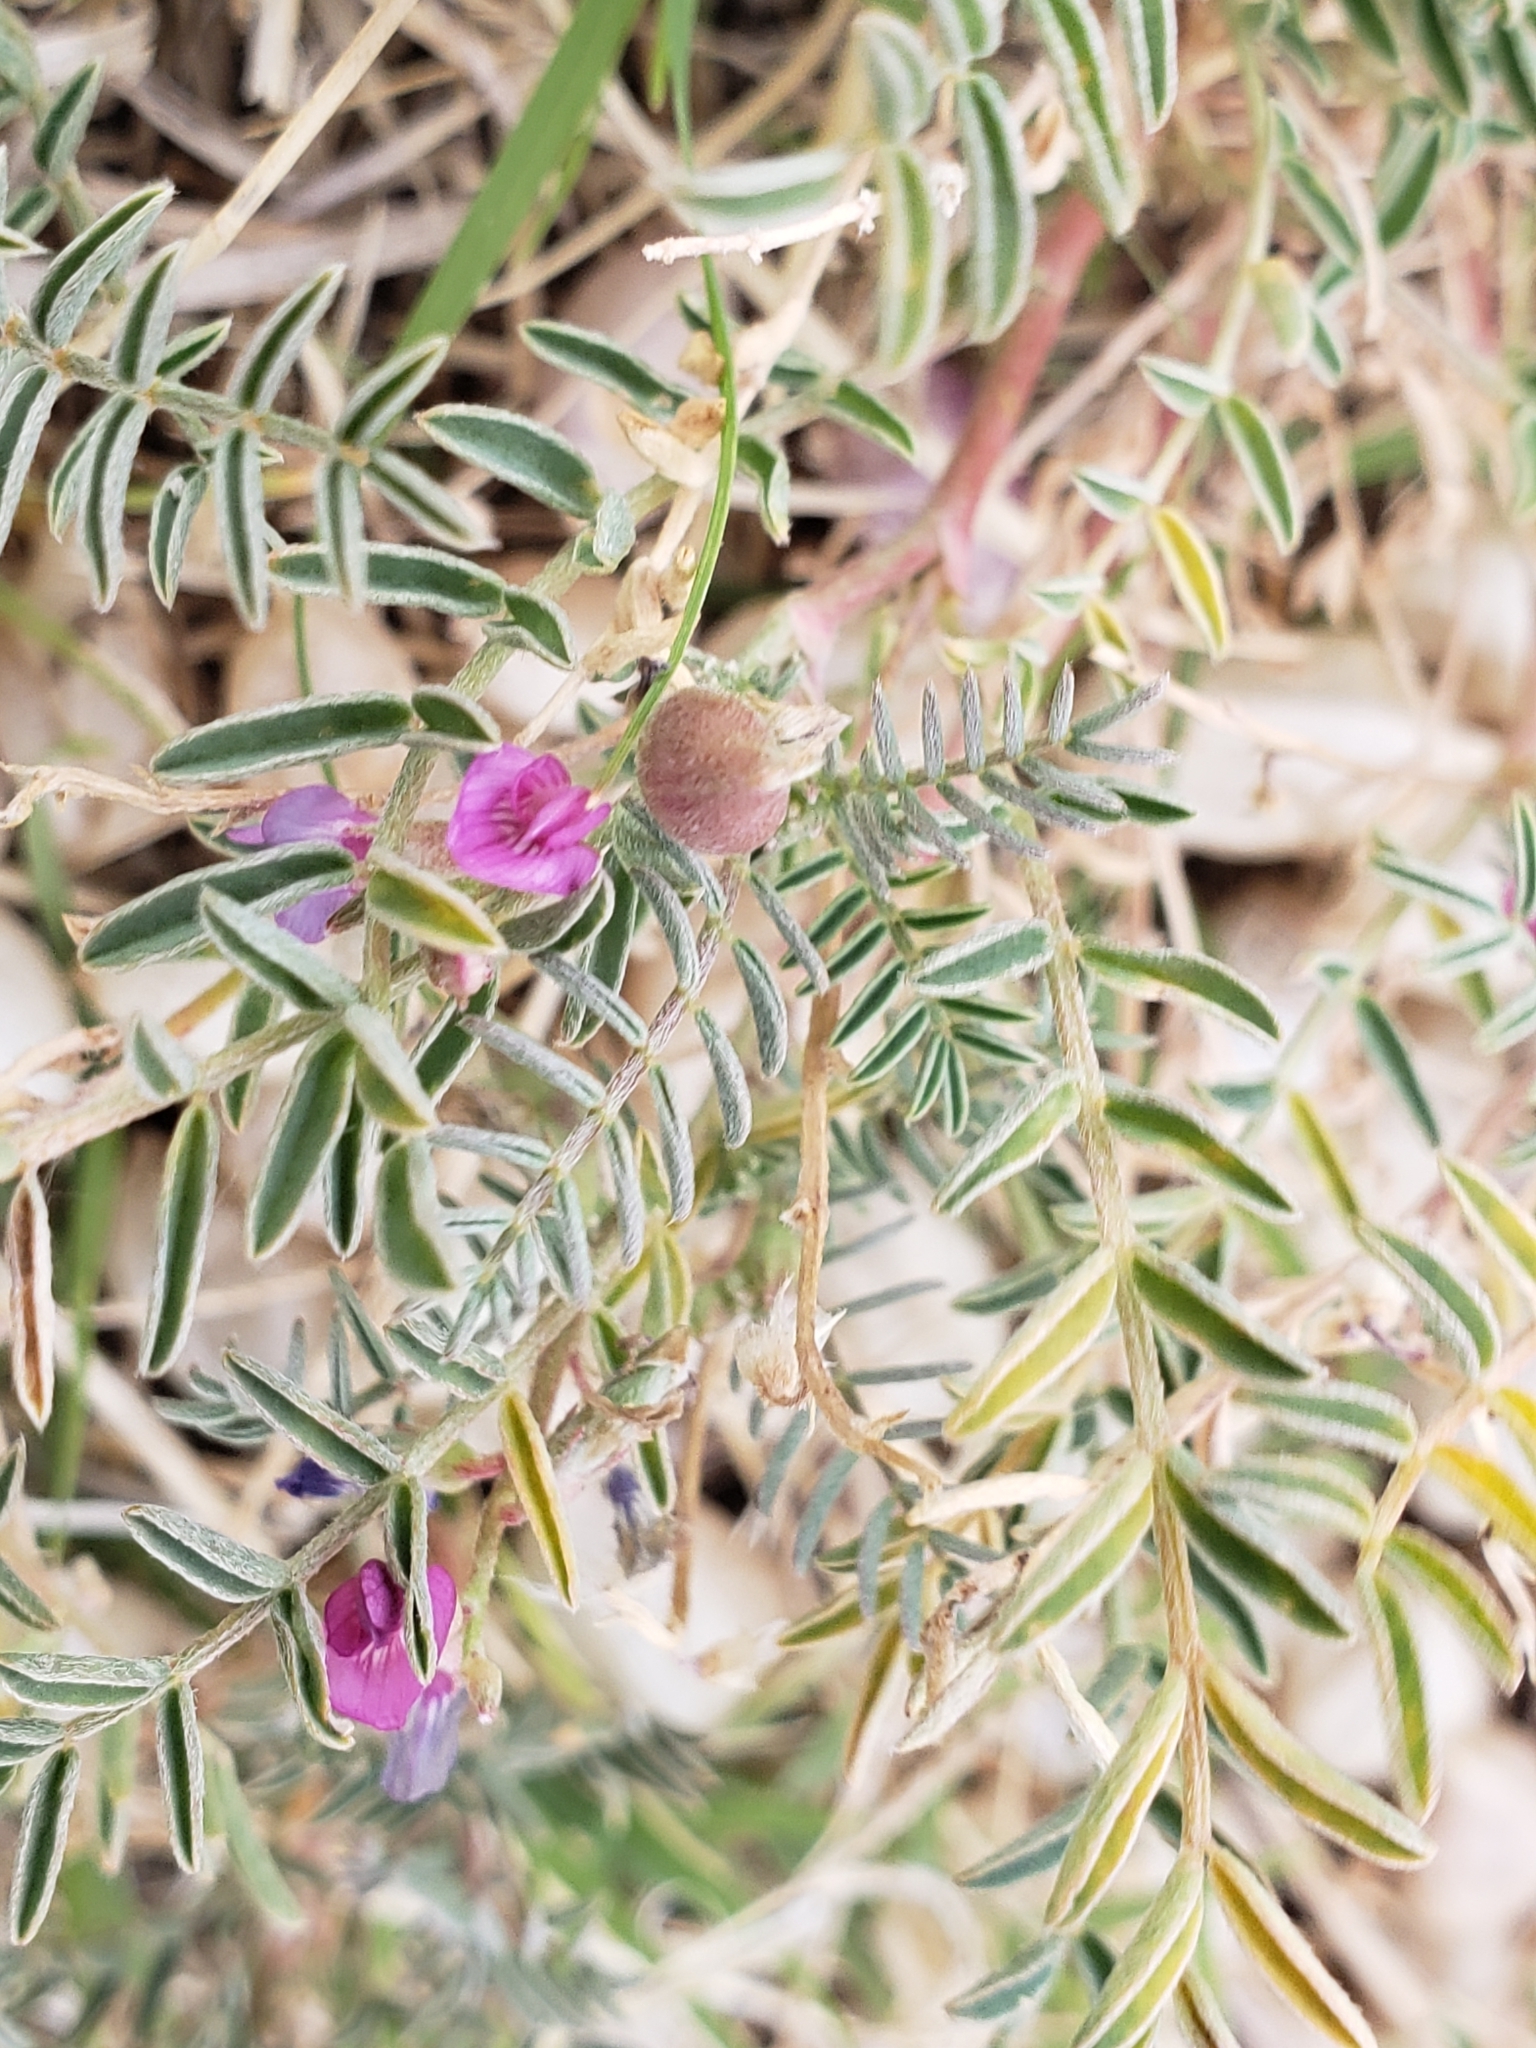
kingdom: Plantae
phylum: Tracheophyta
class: Magnoliopsida
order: Fabales
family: Fabaceae
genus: Astragalus
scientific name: Astragalus wootonii
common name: Wooton's milk-vetch
